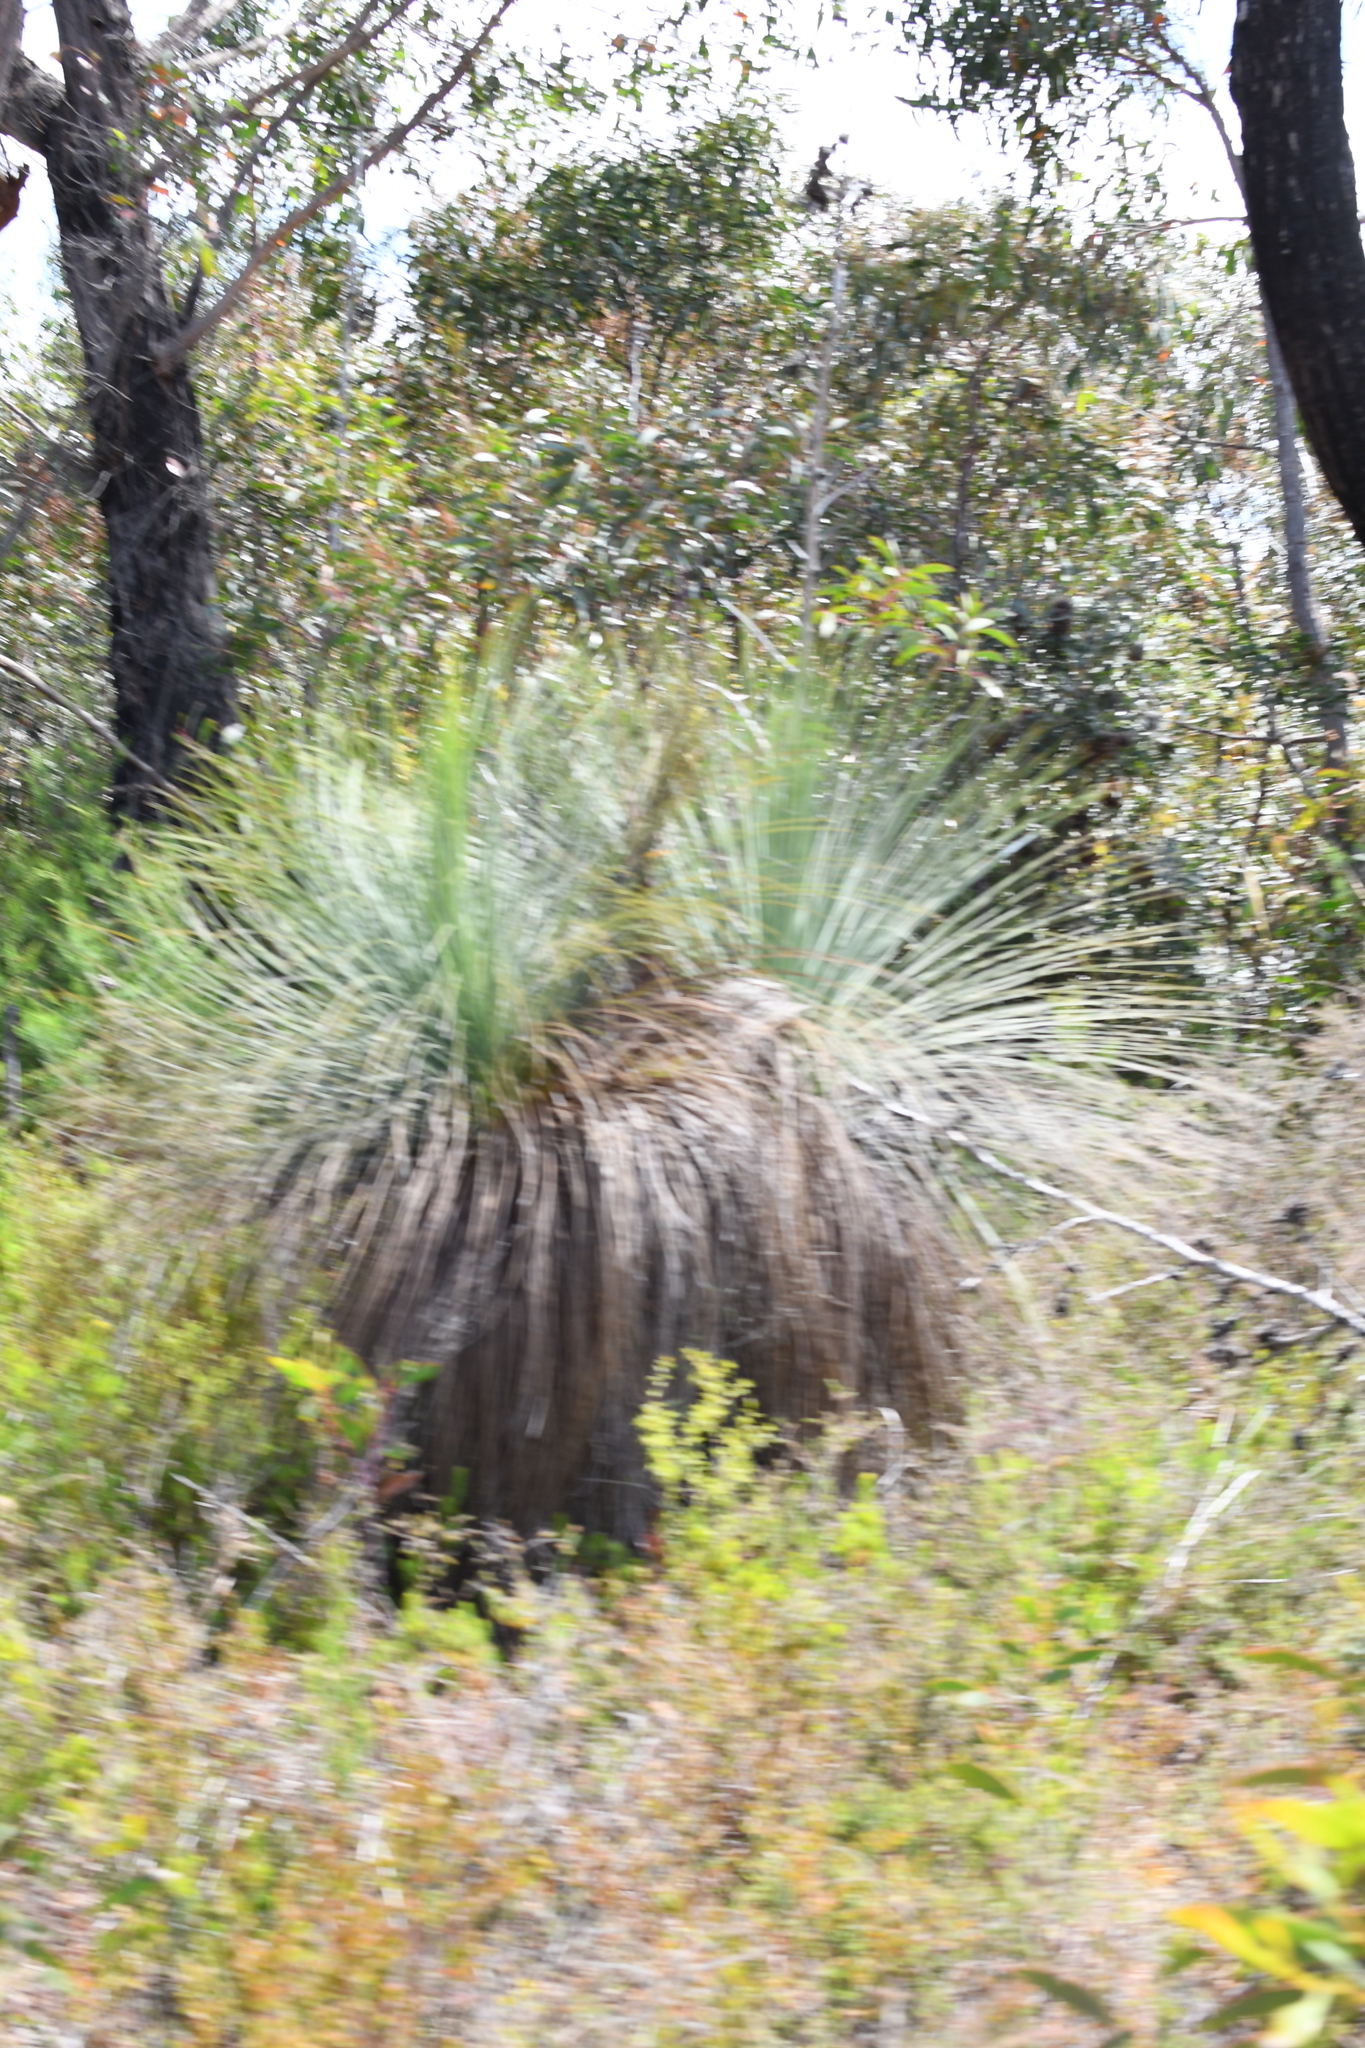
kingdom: Plantae
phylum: Tracheophyta
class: Liliopsida
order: Asparagales
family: Asphodelaceae
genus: Xanthorrhoea
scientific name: Xanthorrhoea australis
